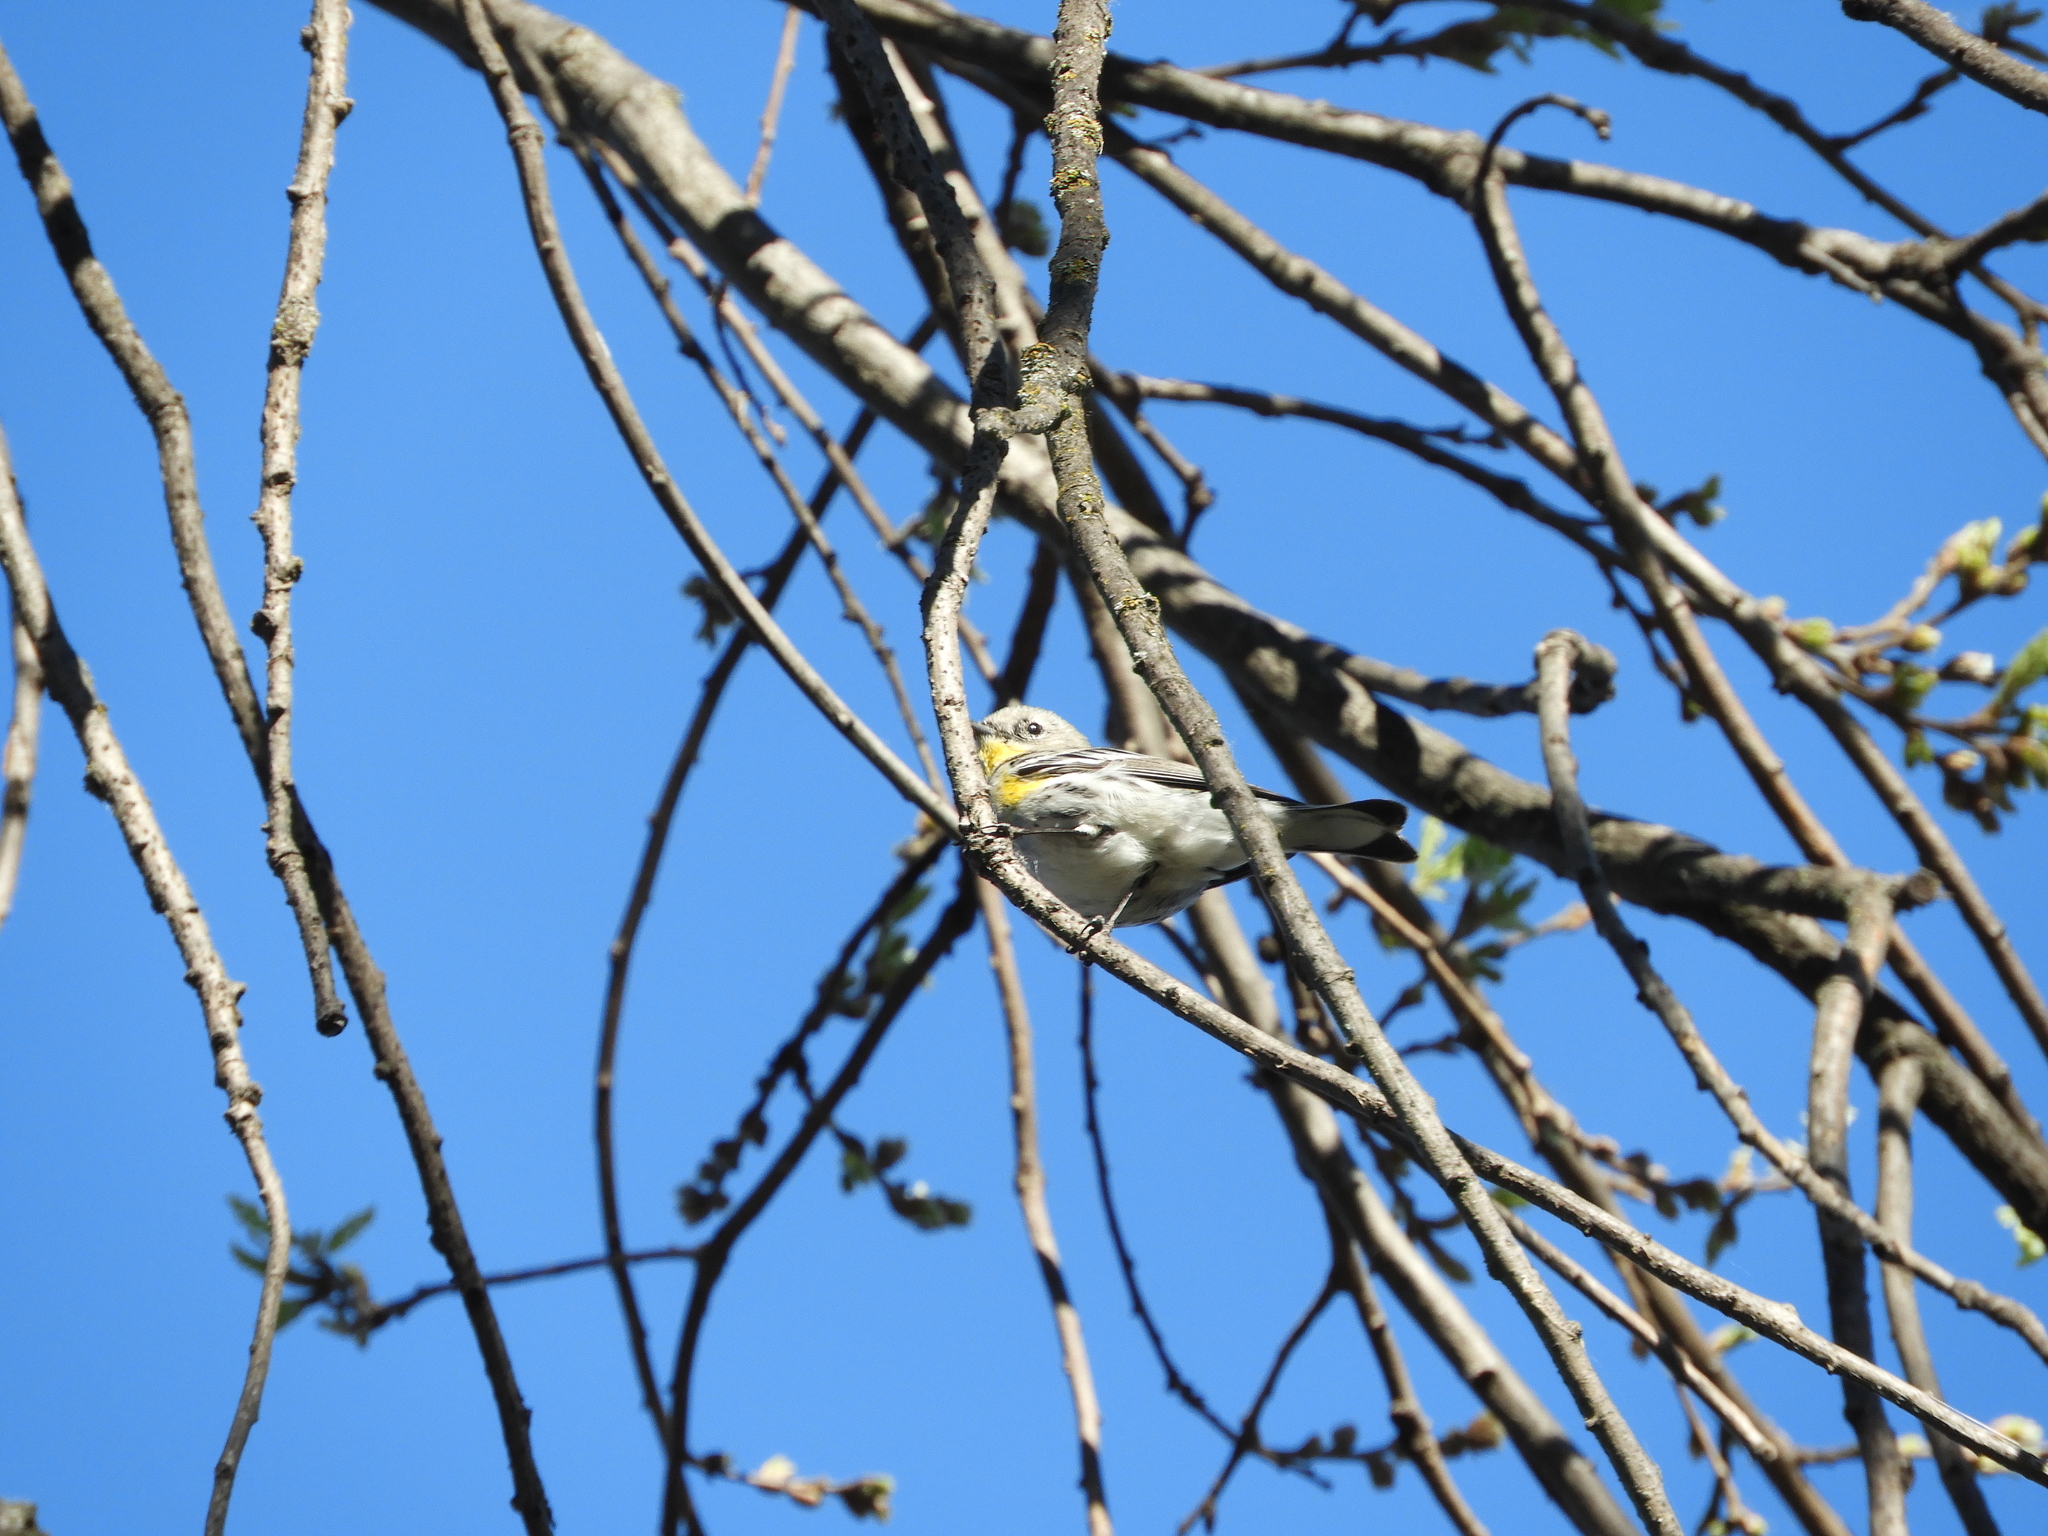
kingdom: Animalia
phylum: Chordata
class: Aves
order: Passeriformes
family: Parulidae
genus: Setophaga
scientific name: Setophaga auduboni
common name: Audubon's warbler
